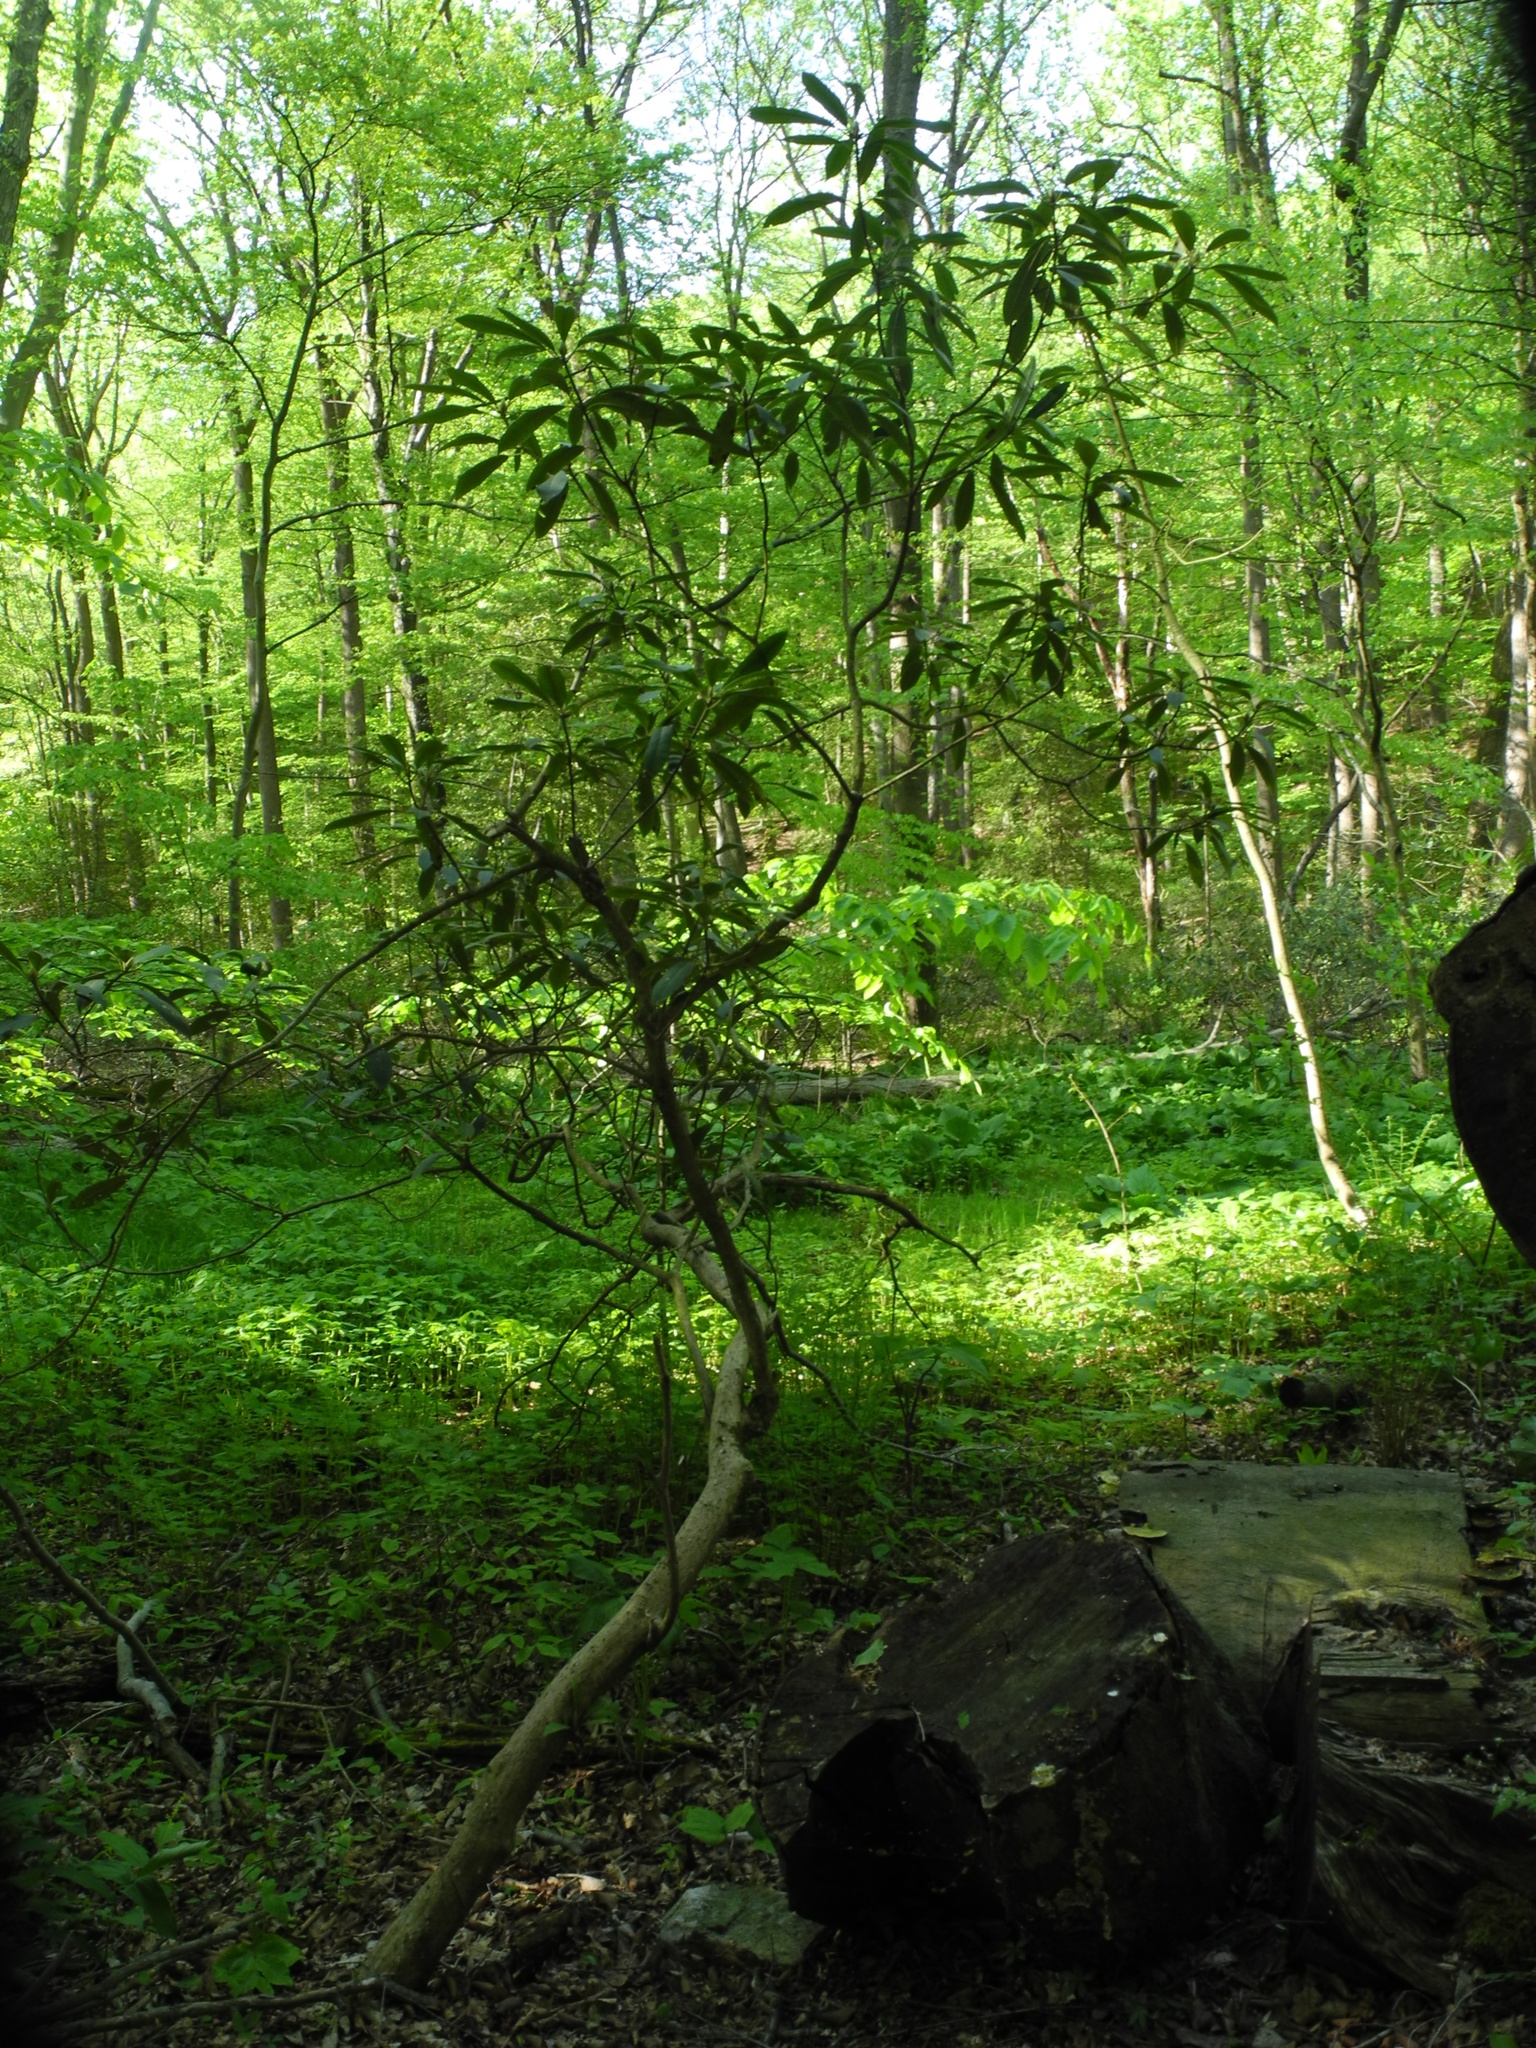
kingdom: Plantae
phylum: Tracheophyta
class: Magnoliopsida
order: Ericales
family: Ericaceae
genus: Rhododendron
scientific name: Rhododendron maximum
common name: Great rhododendron
